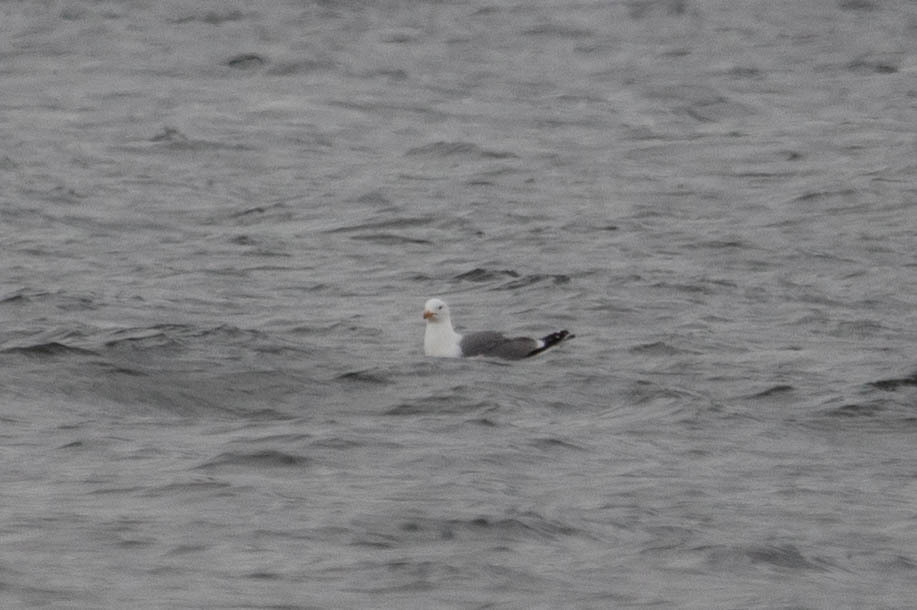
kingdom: Animalia
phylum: Chordata
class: Aves
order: Charadriiformes
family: Laridae
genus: Larus
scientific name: Larus californicus
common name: California gull
